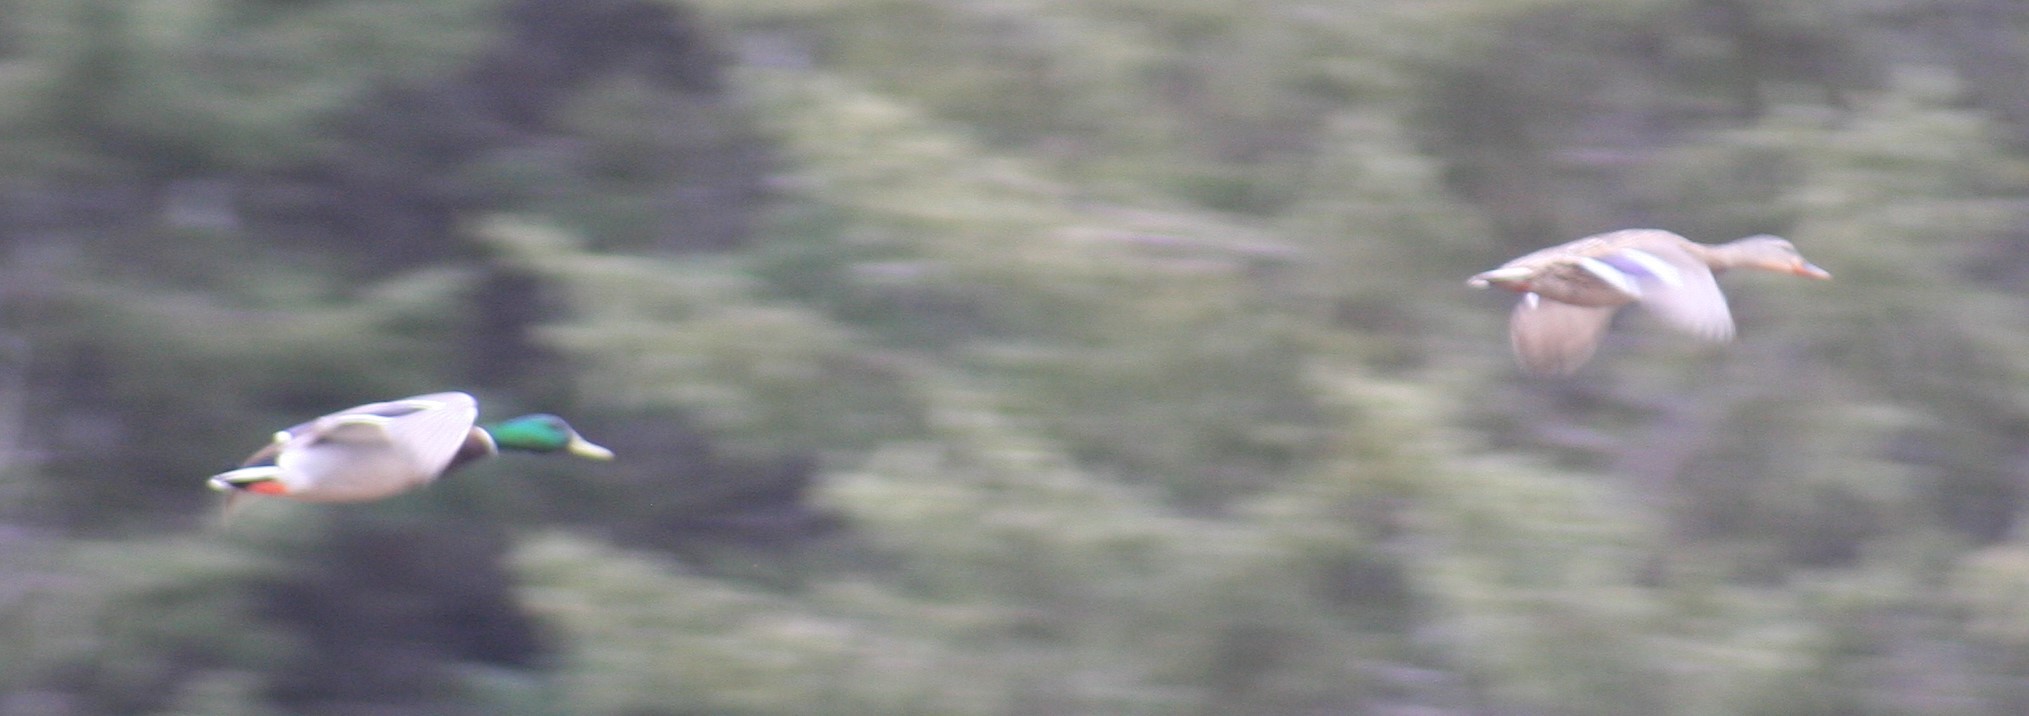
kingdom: Animalia
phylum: Chordata
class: Aves
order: Anseriformes
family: Anatidae
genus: Anas
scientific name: Anas platyrhynchos
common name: Mallard
